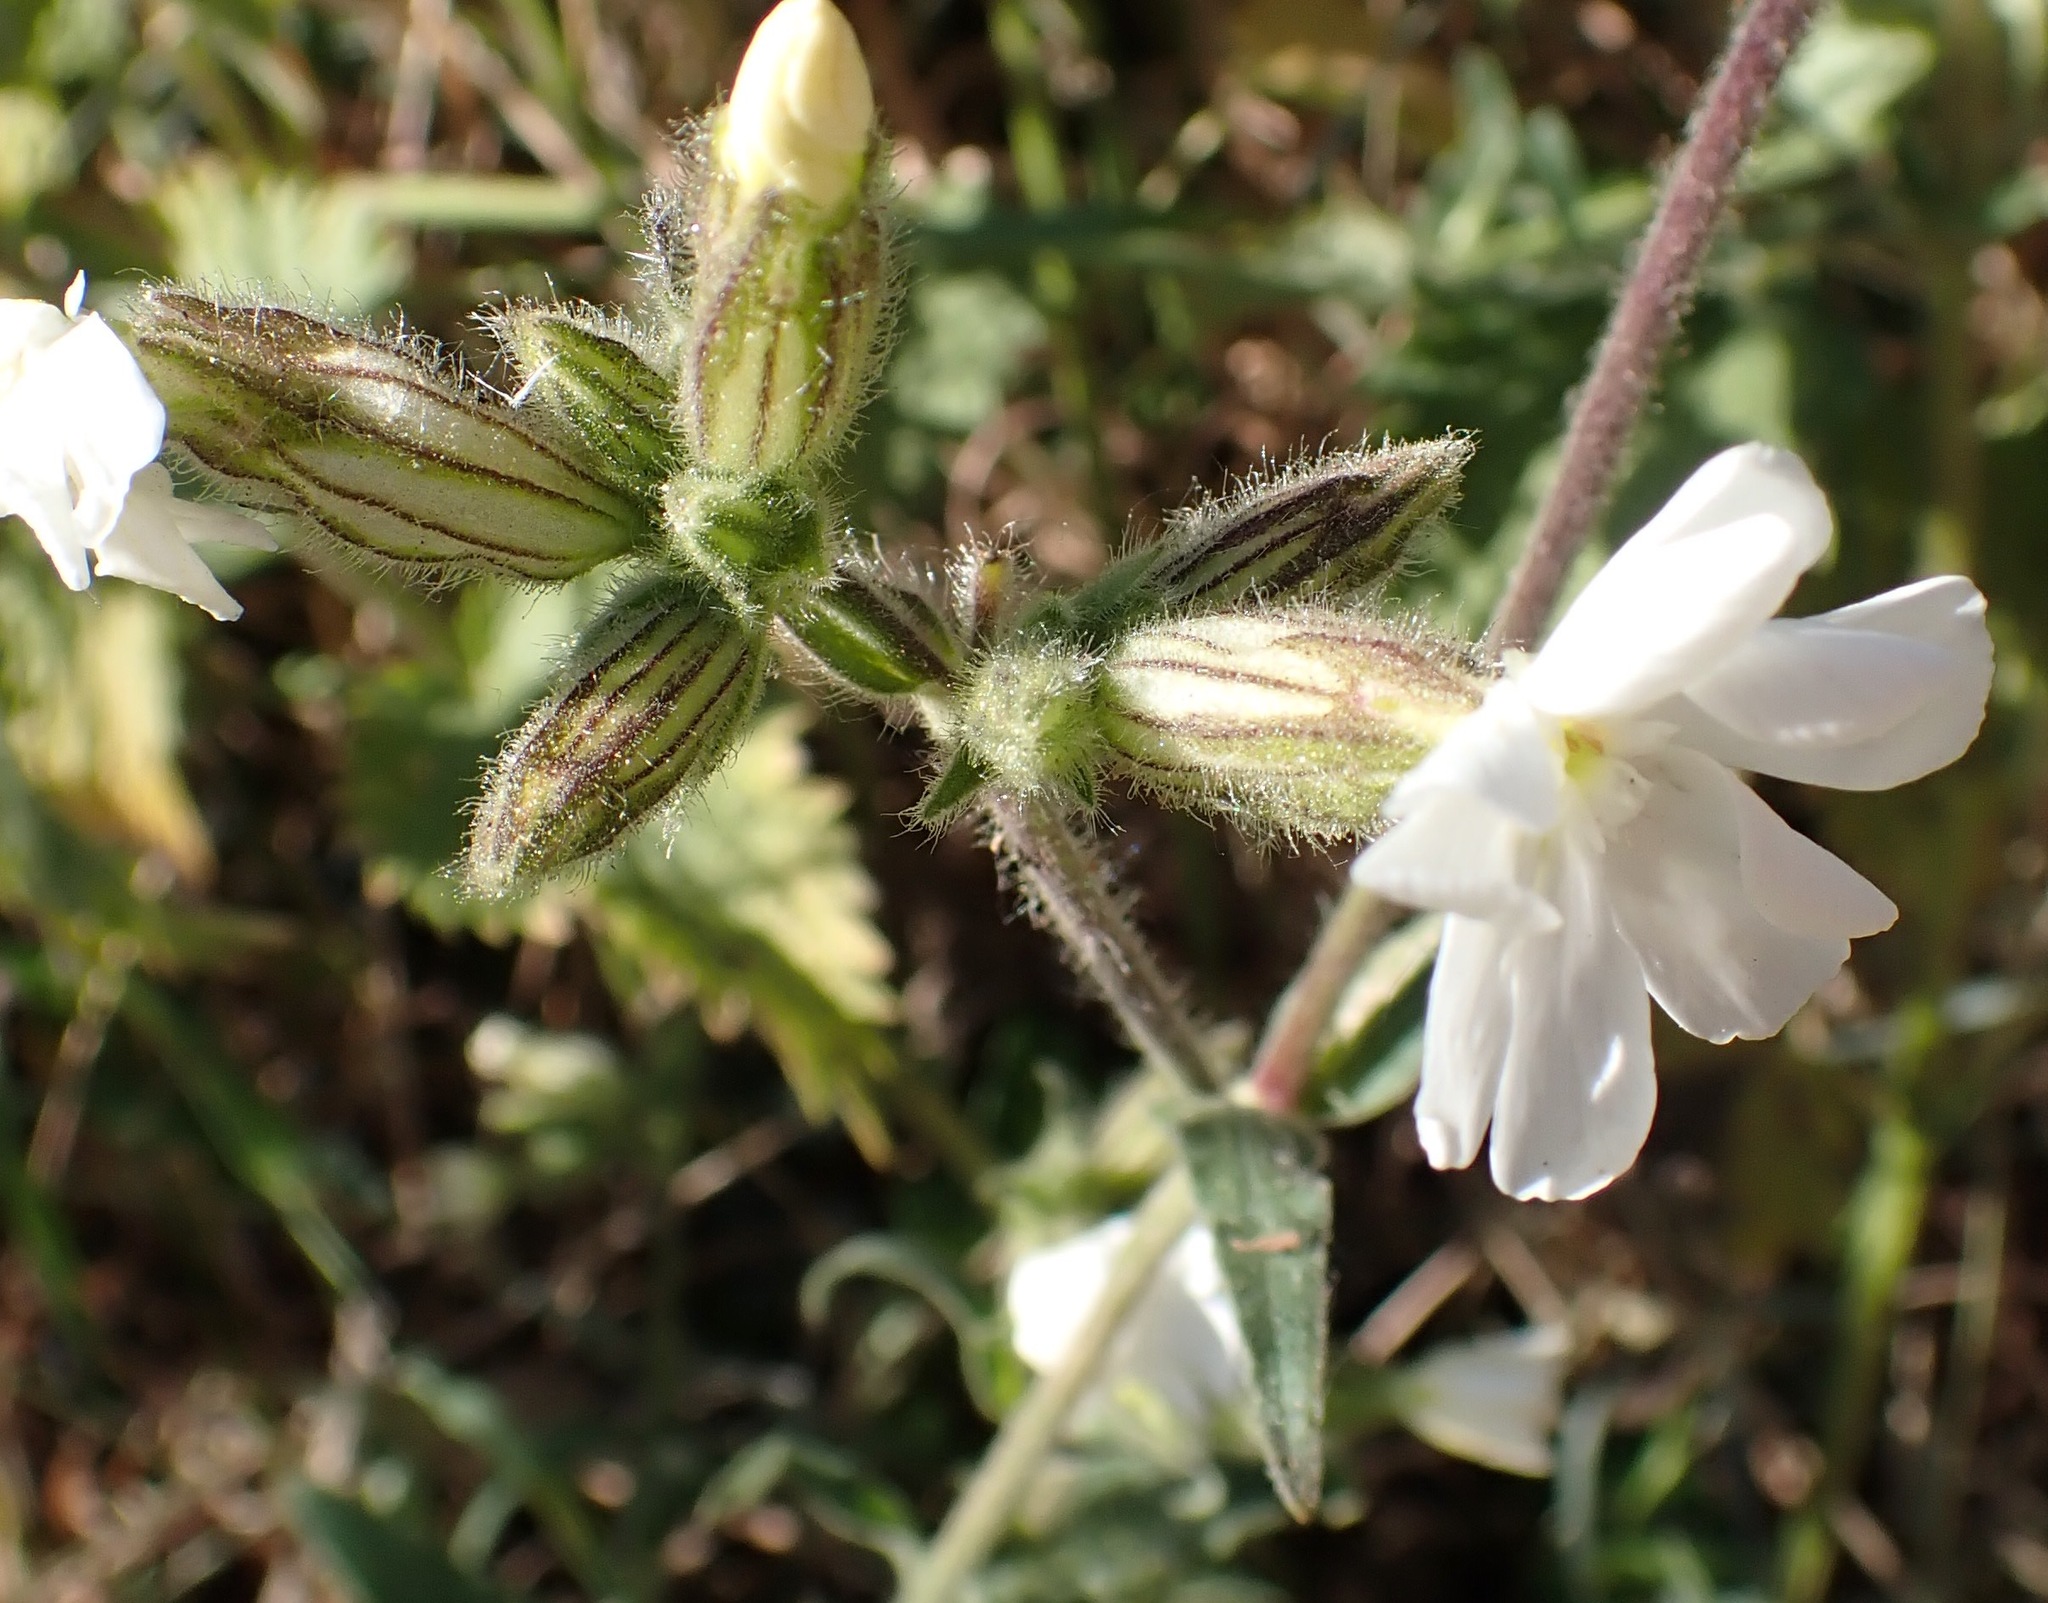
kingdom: Plantae
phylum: Tracheophyta
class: Magnoliopsida
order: Caryophyllales
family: Caryophyllaceae
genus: Silene
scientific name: Silene latifolia
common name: White campion
